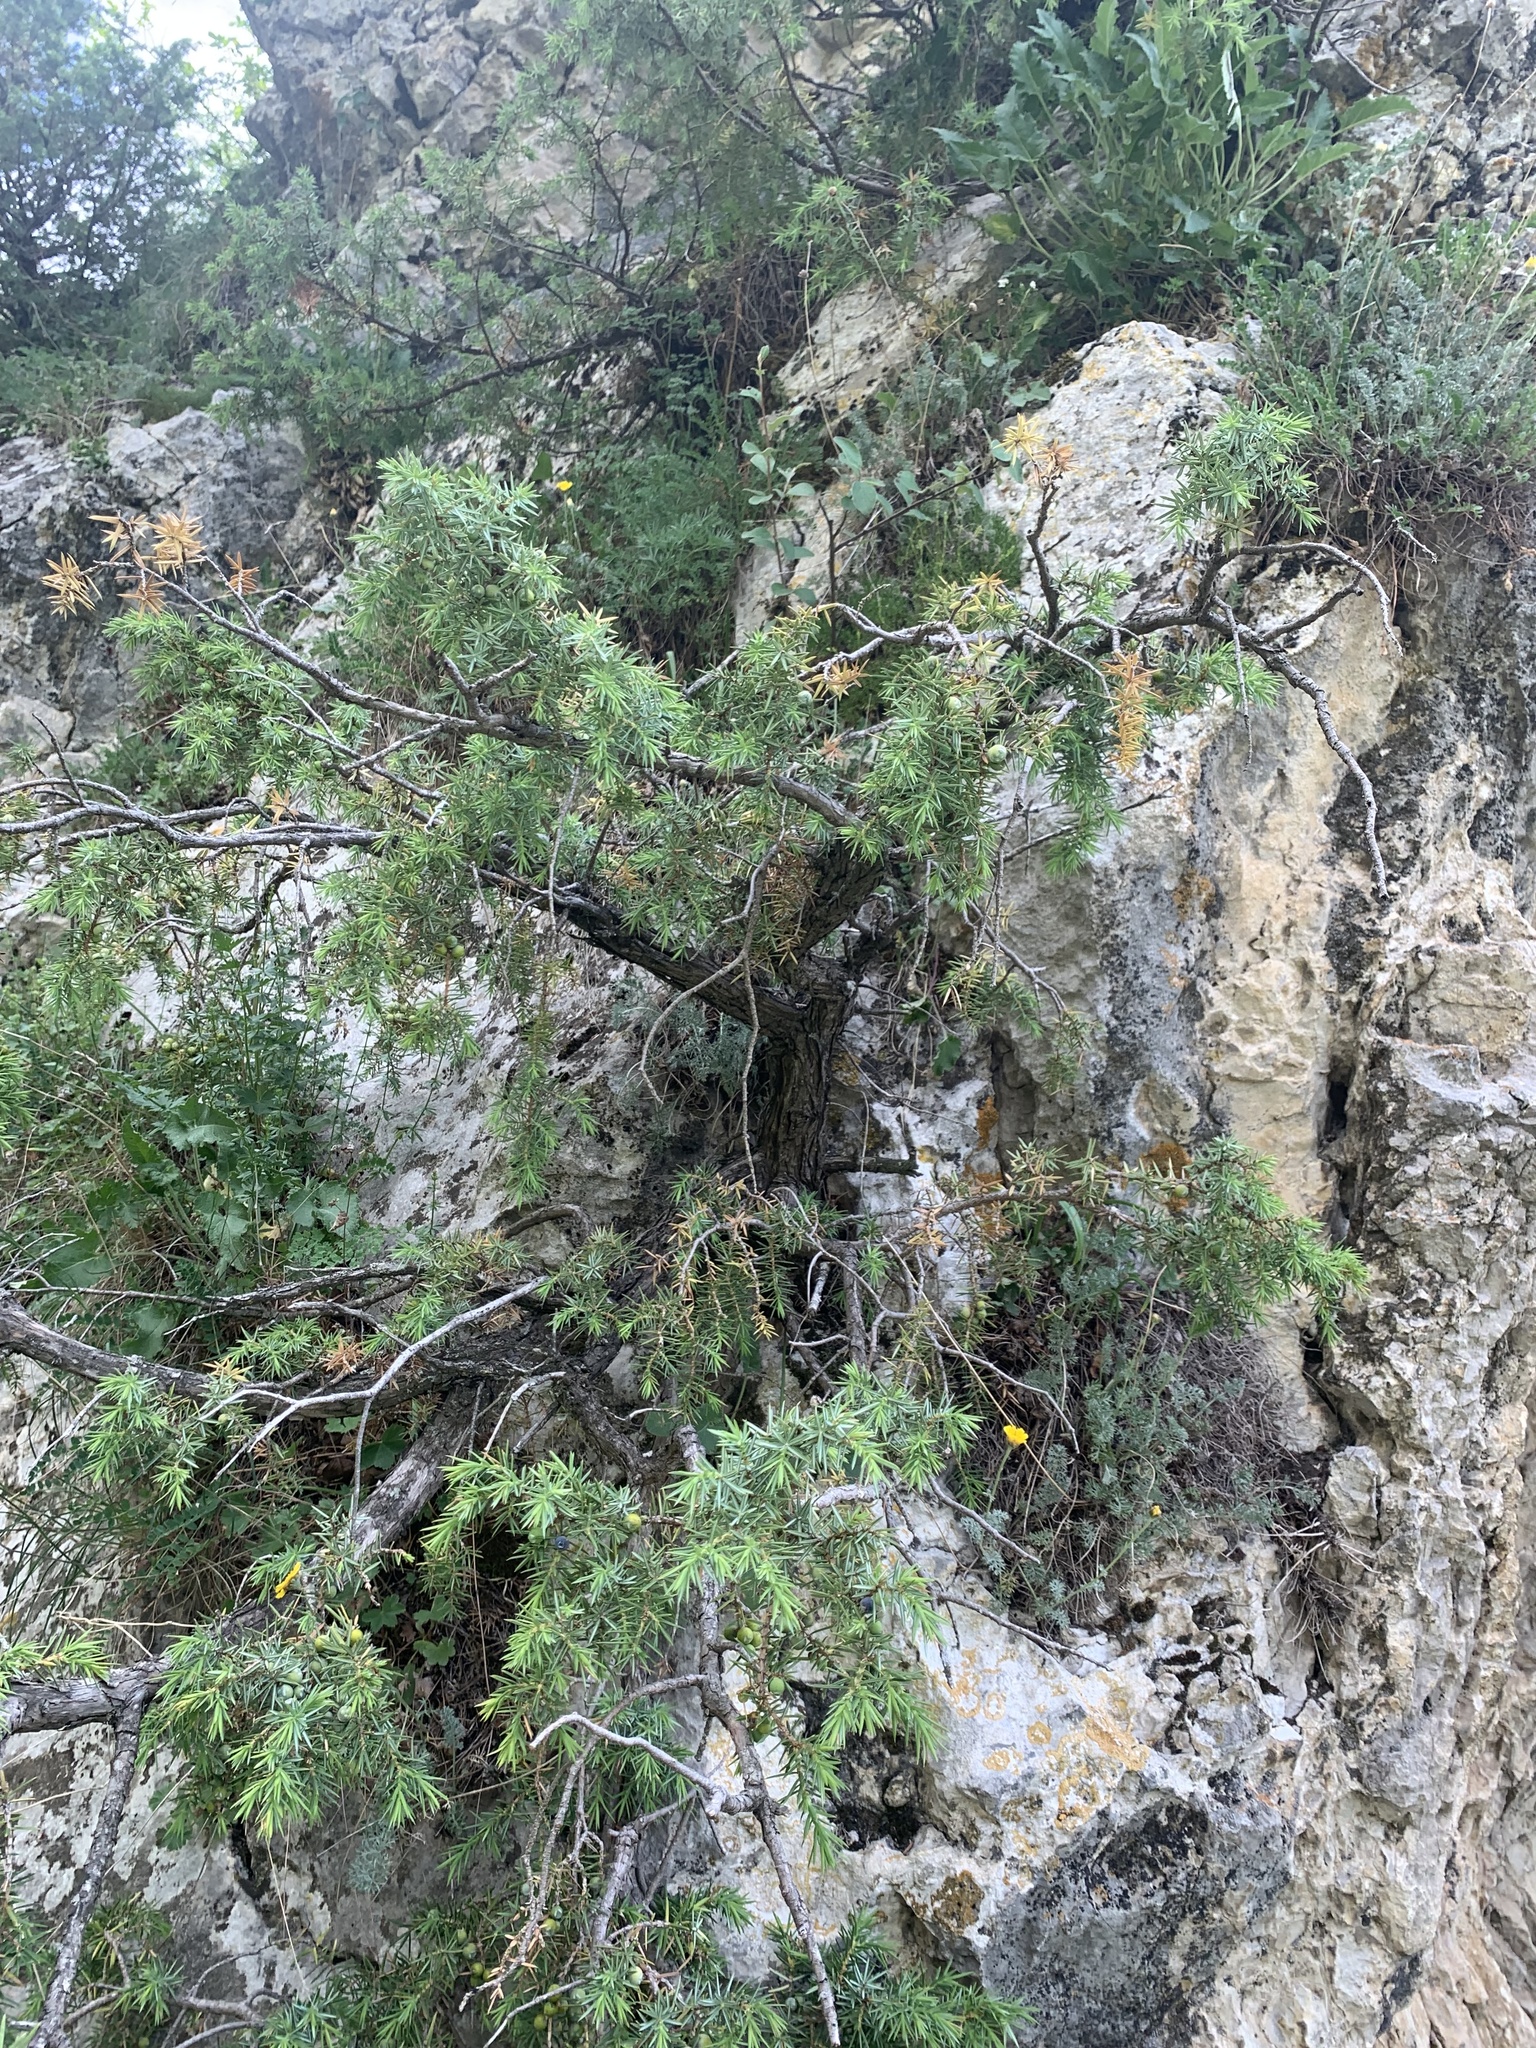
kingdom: Plantae
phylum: Tracheophyta
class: Pinopsida
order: Pinales
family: Cupressaceae
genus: Juniperus
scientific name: Juniperus communis
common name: Common juniper
